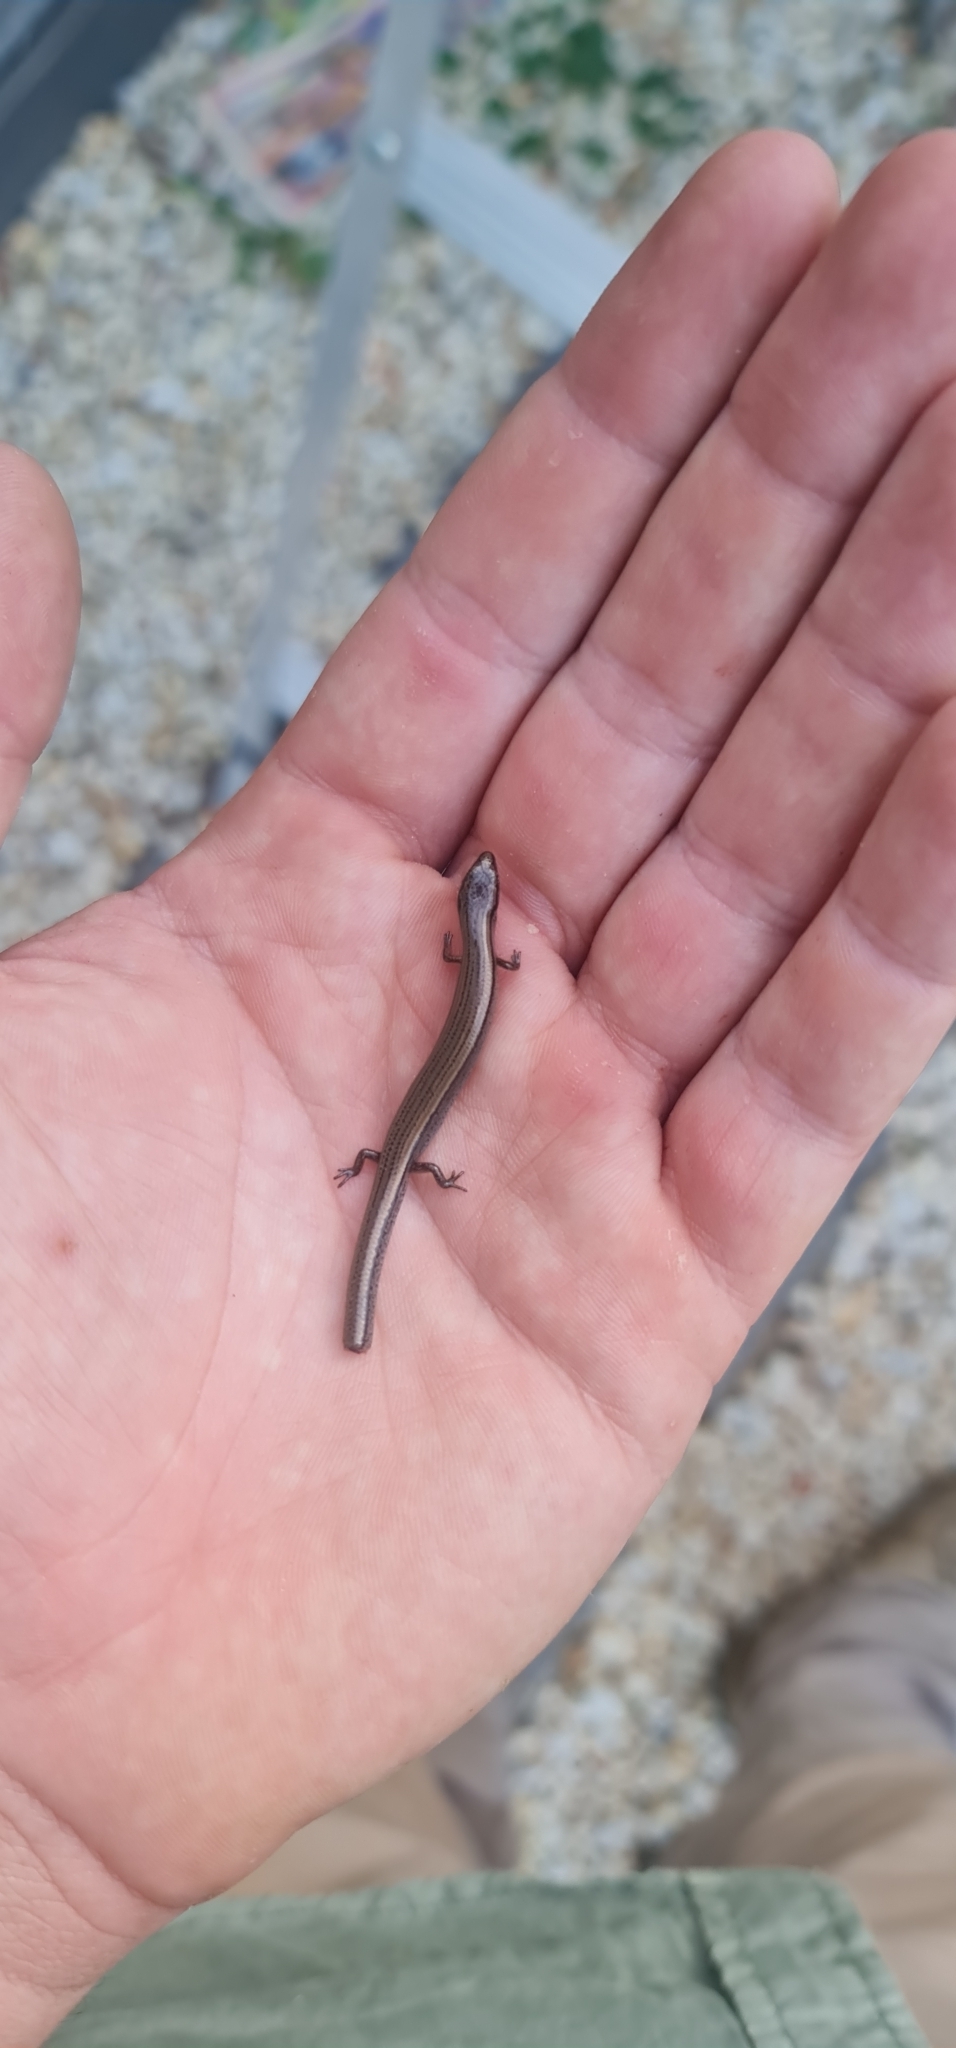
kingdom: Animalia
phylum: Chordata
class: Squamata
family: Scincidae
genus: Hemiergis
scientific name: Hemiergis decresiensis
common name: Three-toed earless skink
